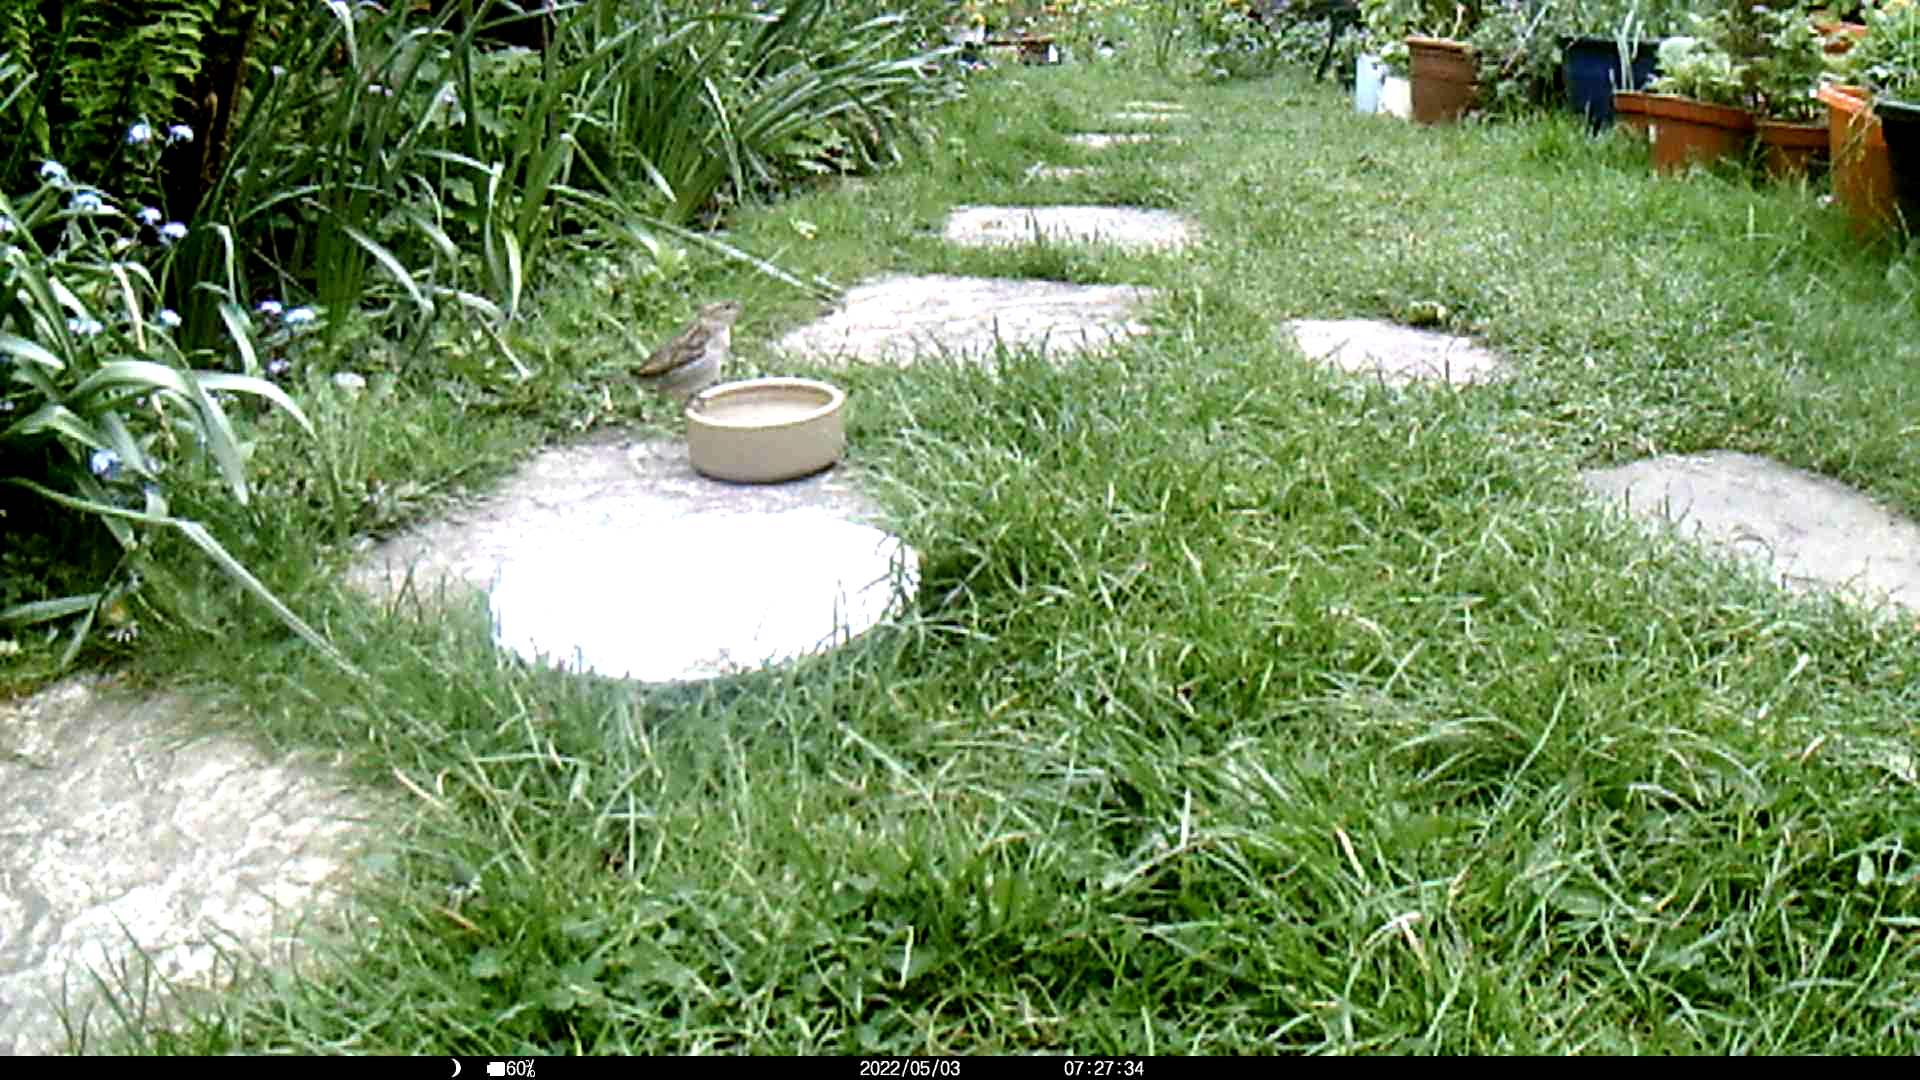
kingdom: Animalia
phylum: Chordata
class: Aves
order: Passeriformes
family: Passeridae
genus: Passer
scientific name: Passer domesticus
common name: House sparrow
